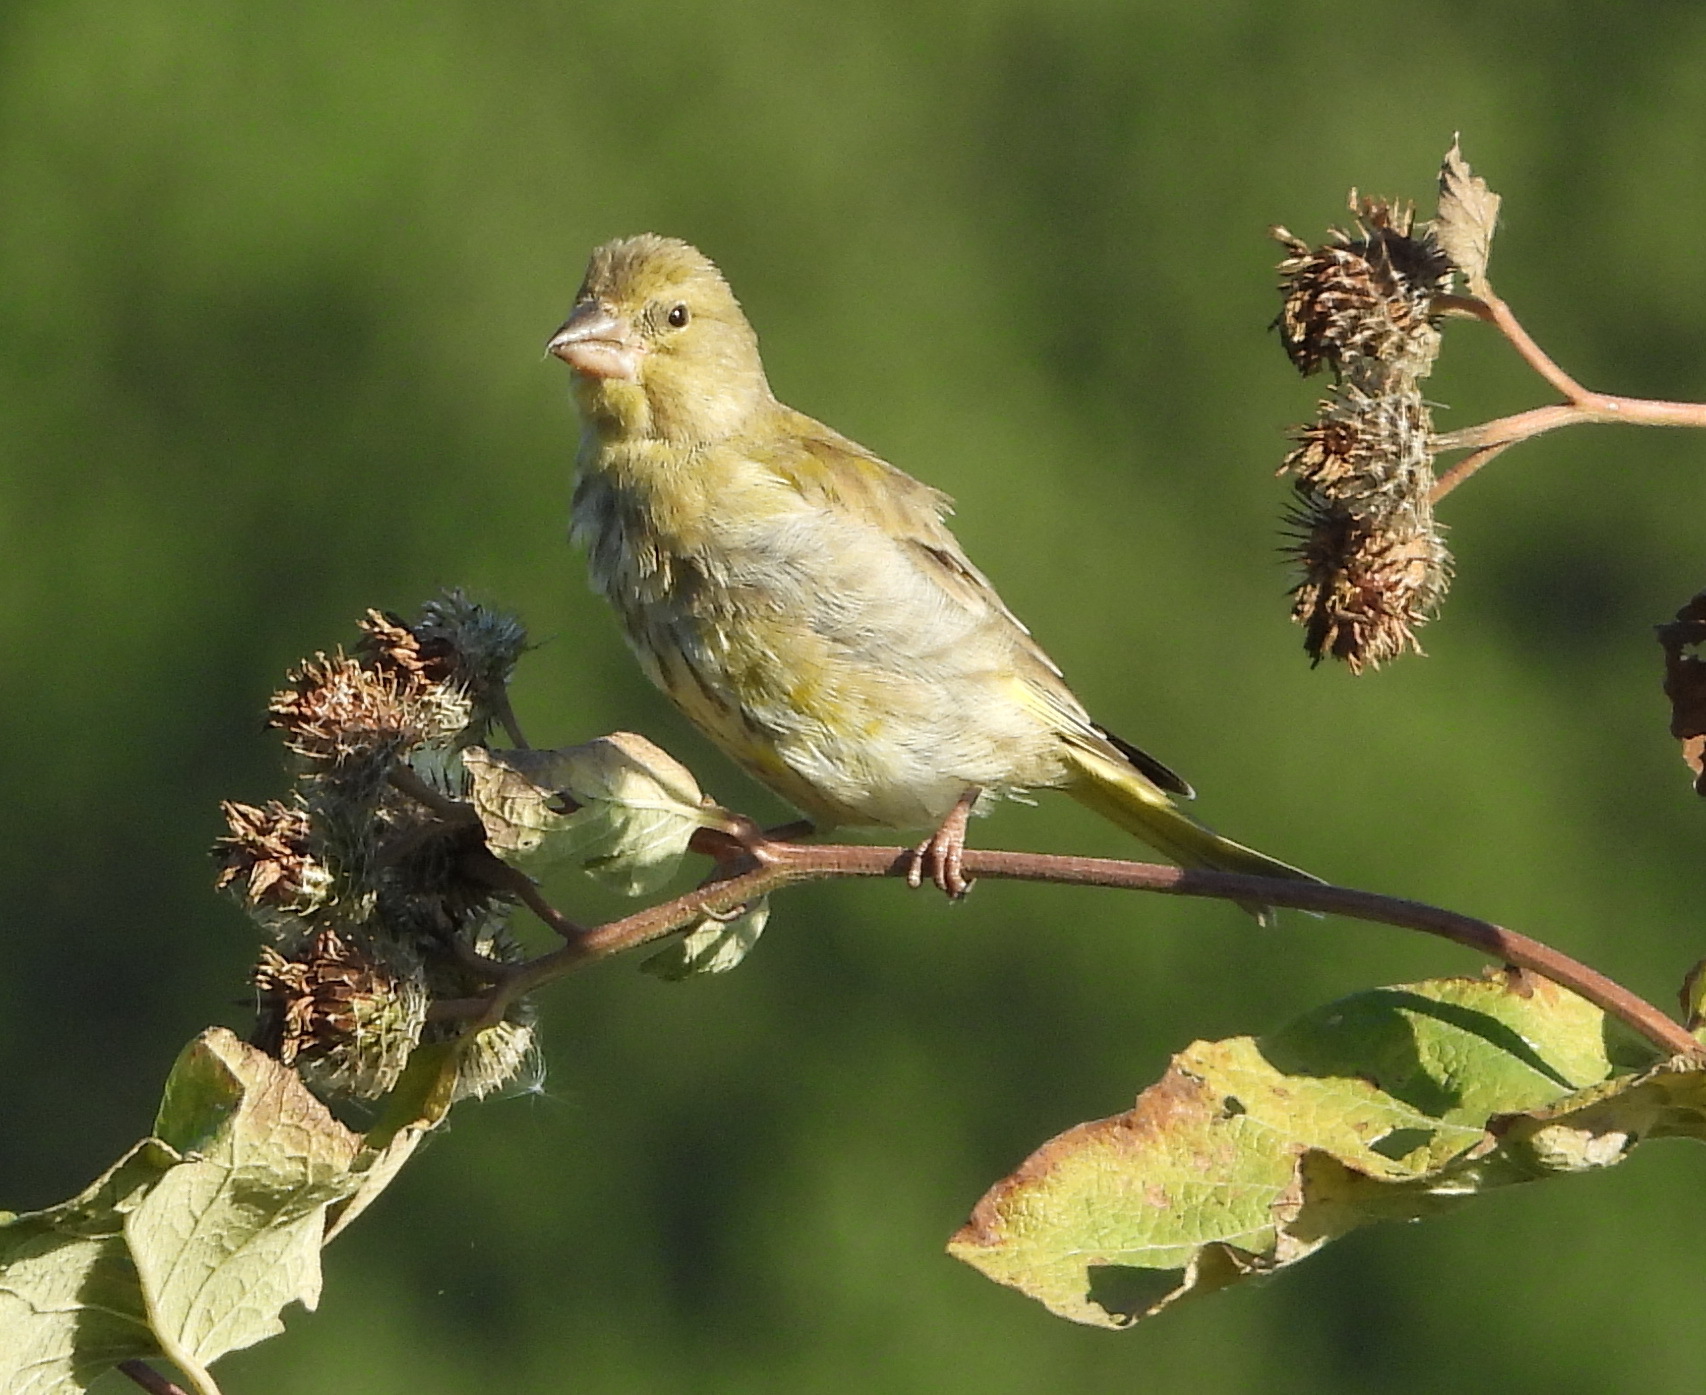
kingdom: Plantae
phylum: Tracheophyta
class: Liliopsida
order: Poales
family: Poaceae
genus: Chloris
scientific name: Chloris chloris
